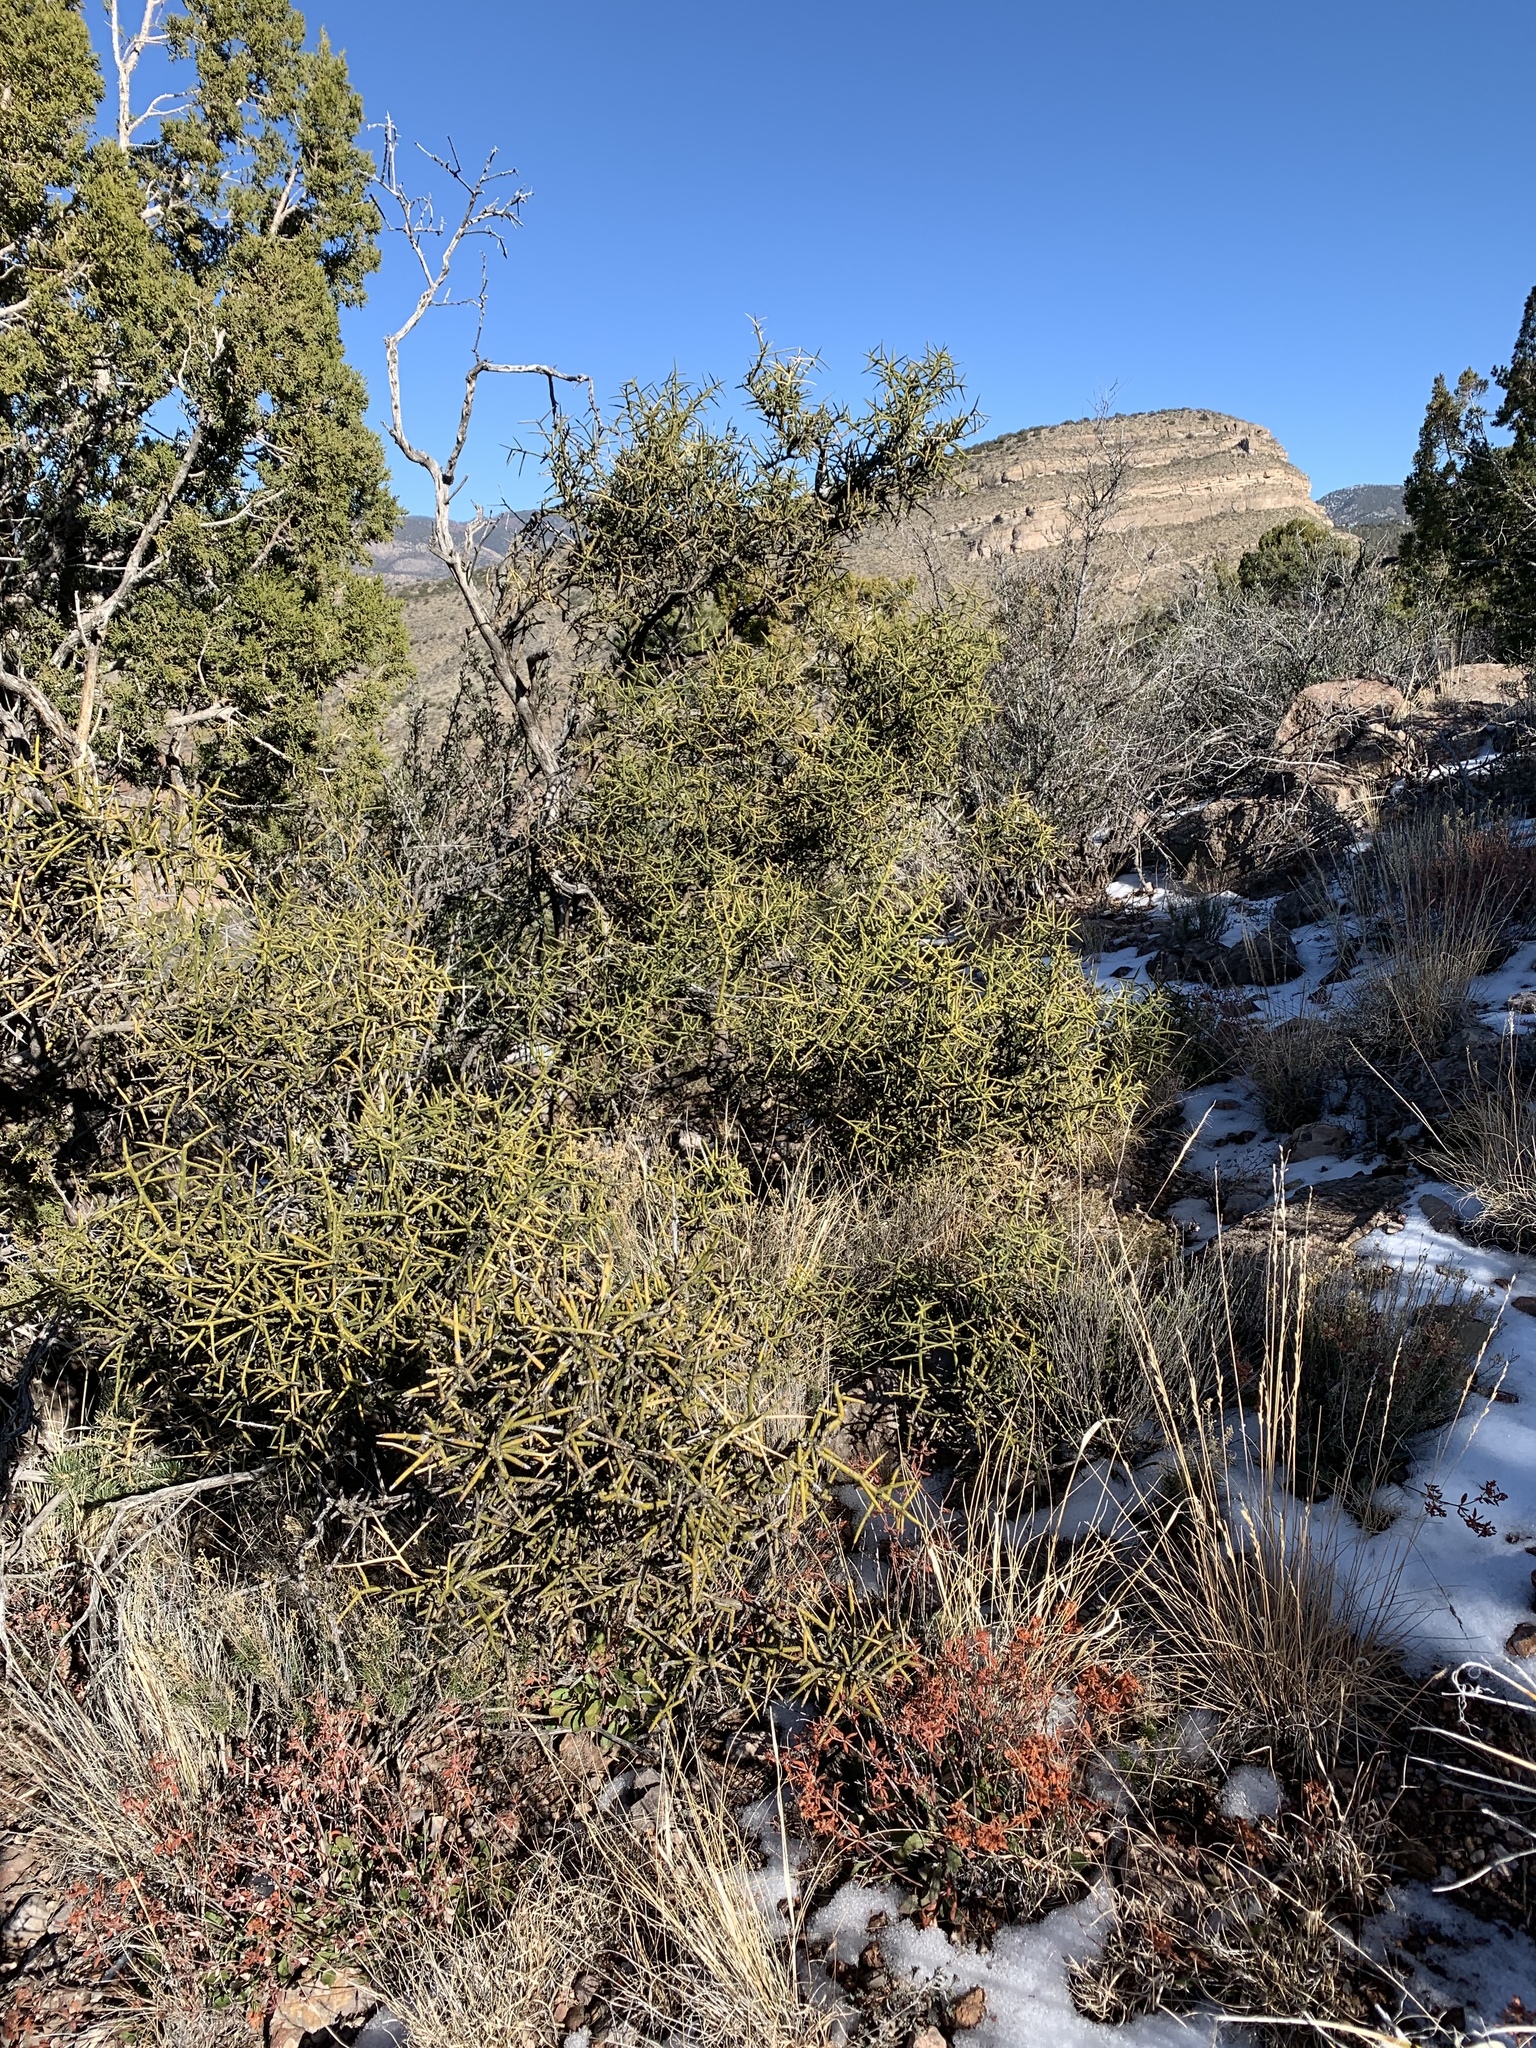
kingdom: Plantae
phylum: Tracheophyta
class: Magnoliopsida
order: Brassicales
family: Koeberliniaceae
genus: Koeberlinia
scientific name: Koeberlinia spinosa
